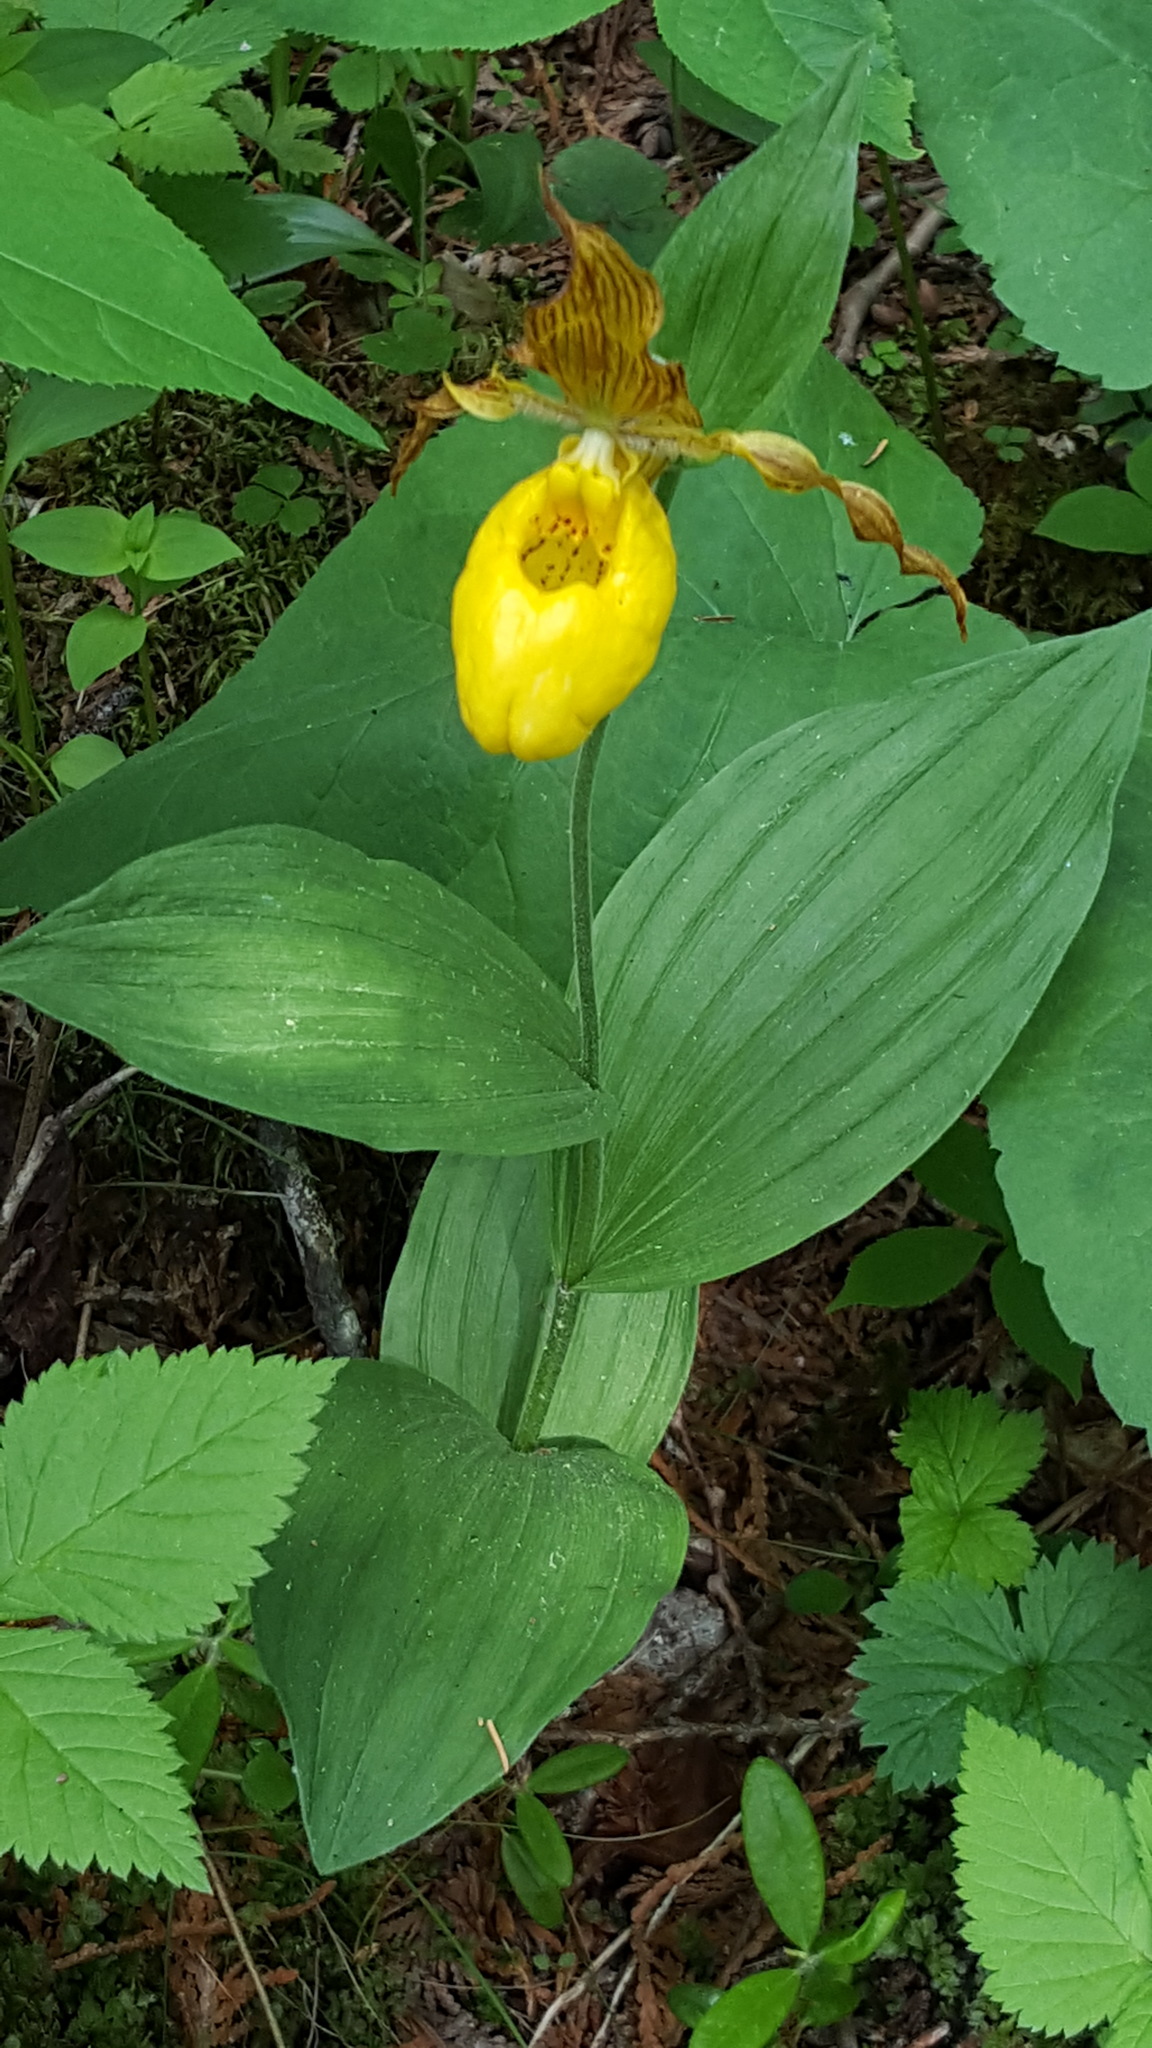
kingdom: Plantae
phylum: Tracheophyta
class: Liliopsida
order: Asparagales
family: Orchidaceae
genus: Cypripedium
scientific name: Cypripedium parviflorum
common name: American yellow lady's-slipper
